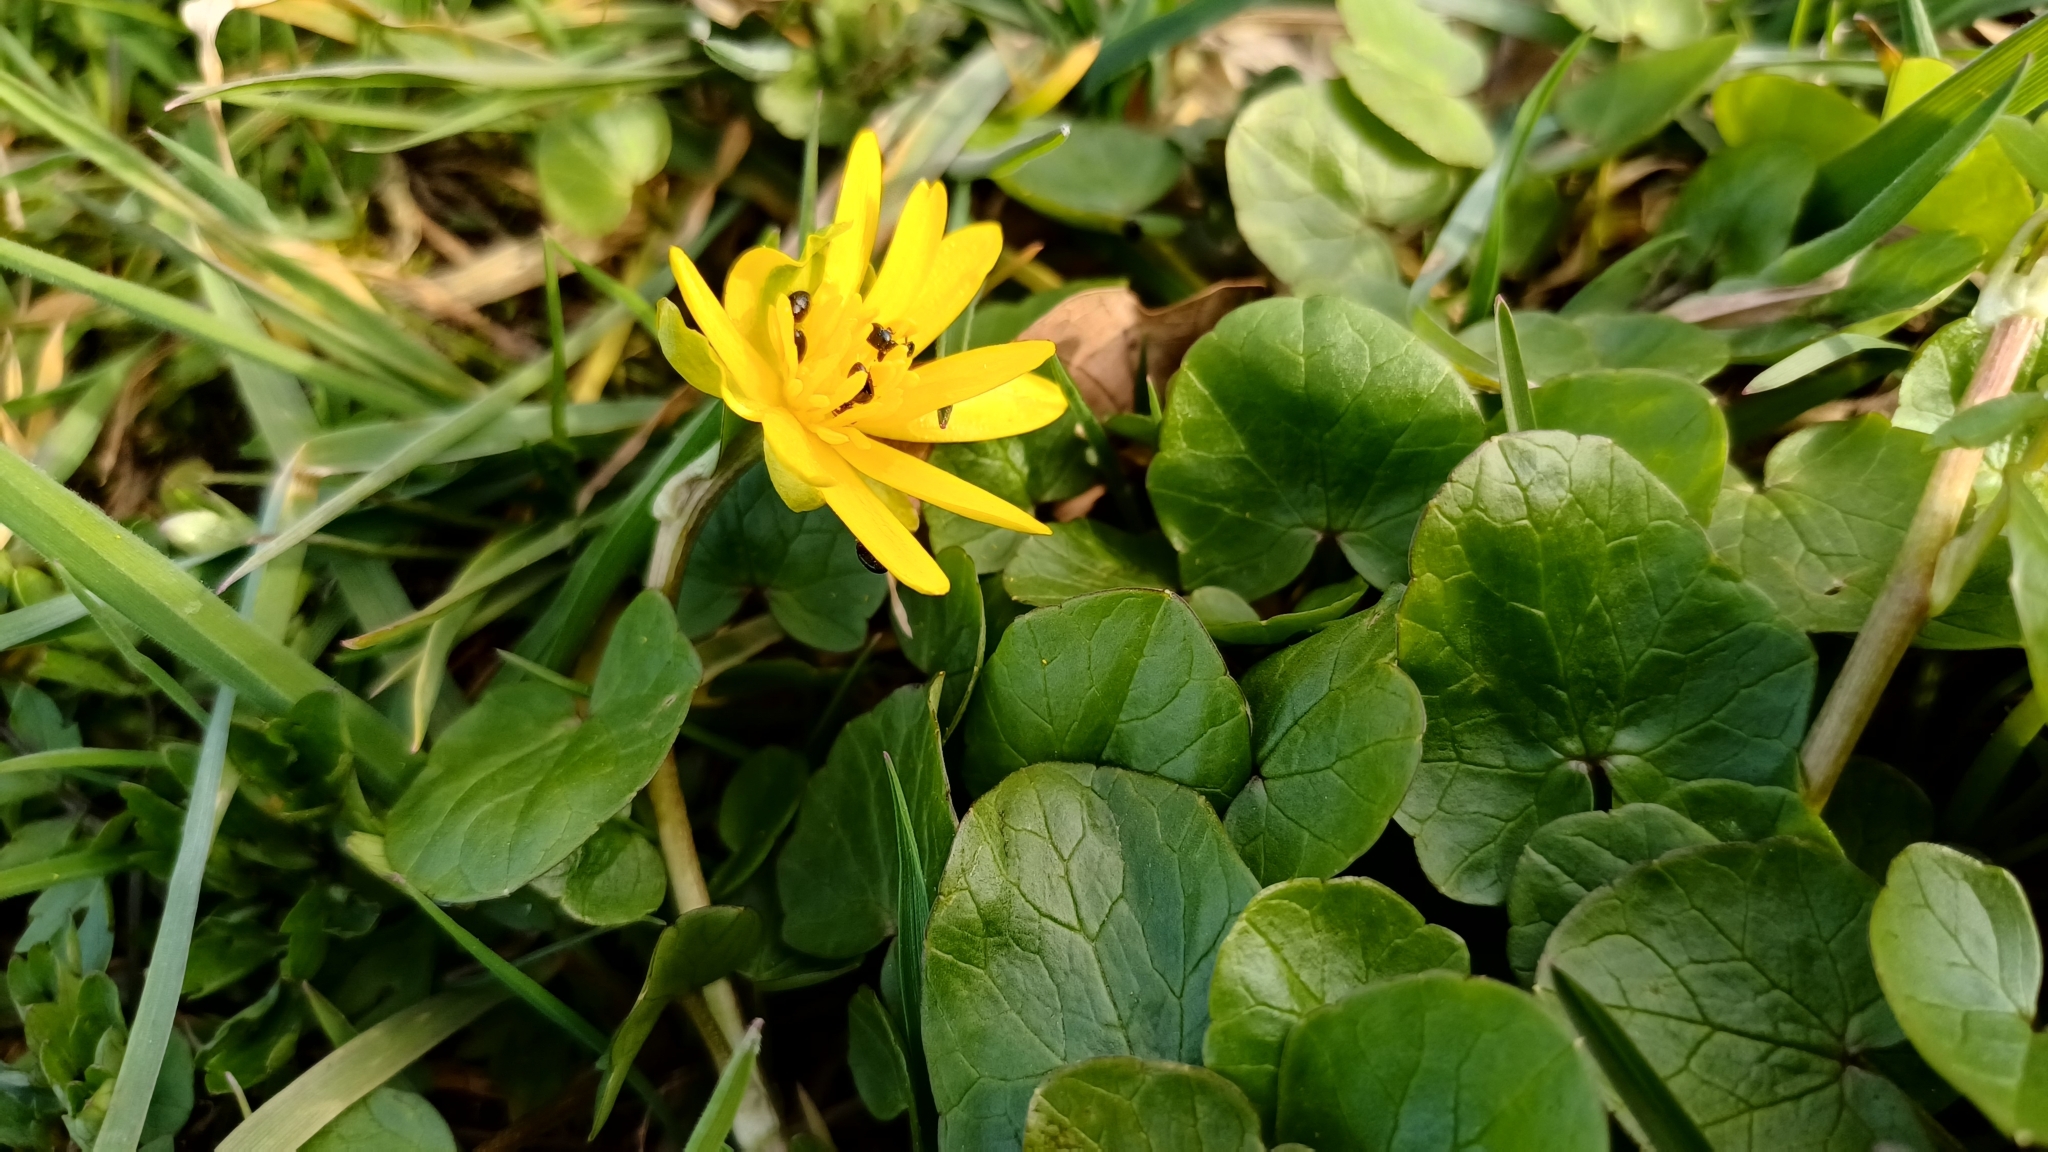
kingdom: Plantae
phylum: Tracheophyta
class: Magnoliopsida
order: Ranunculales
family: Ranunculaceae
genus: Ficaria
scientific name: Ficaria verna
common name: Lesser celandine
